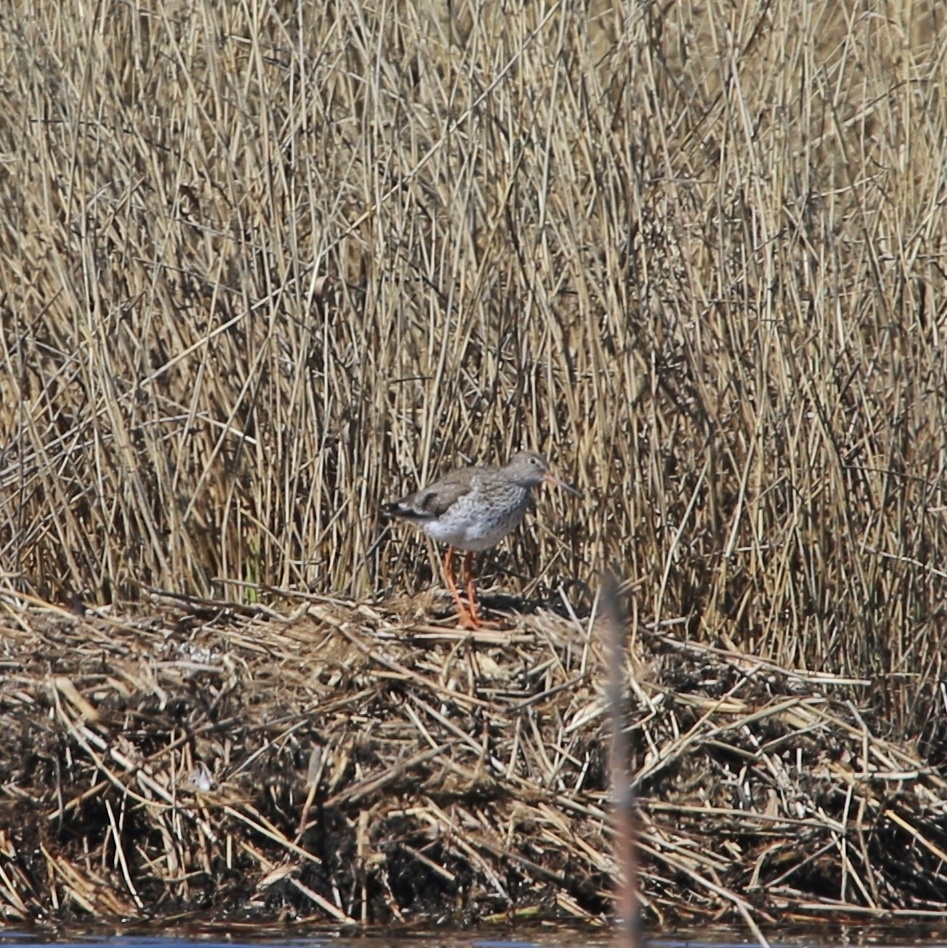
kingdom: Animalia
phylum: Chordata
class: Aves
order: Charadriiformes
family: Scolopacidae
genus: Tringa
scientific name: Tringa totanus
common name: Common redshank
